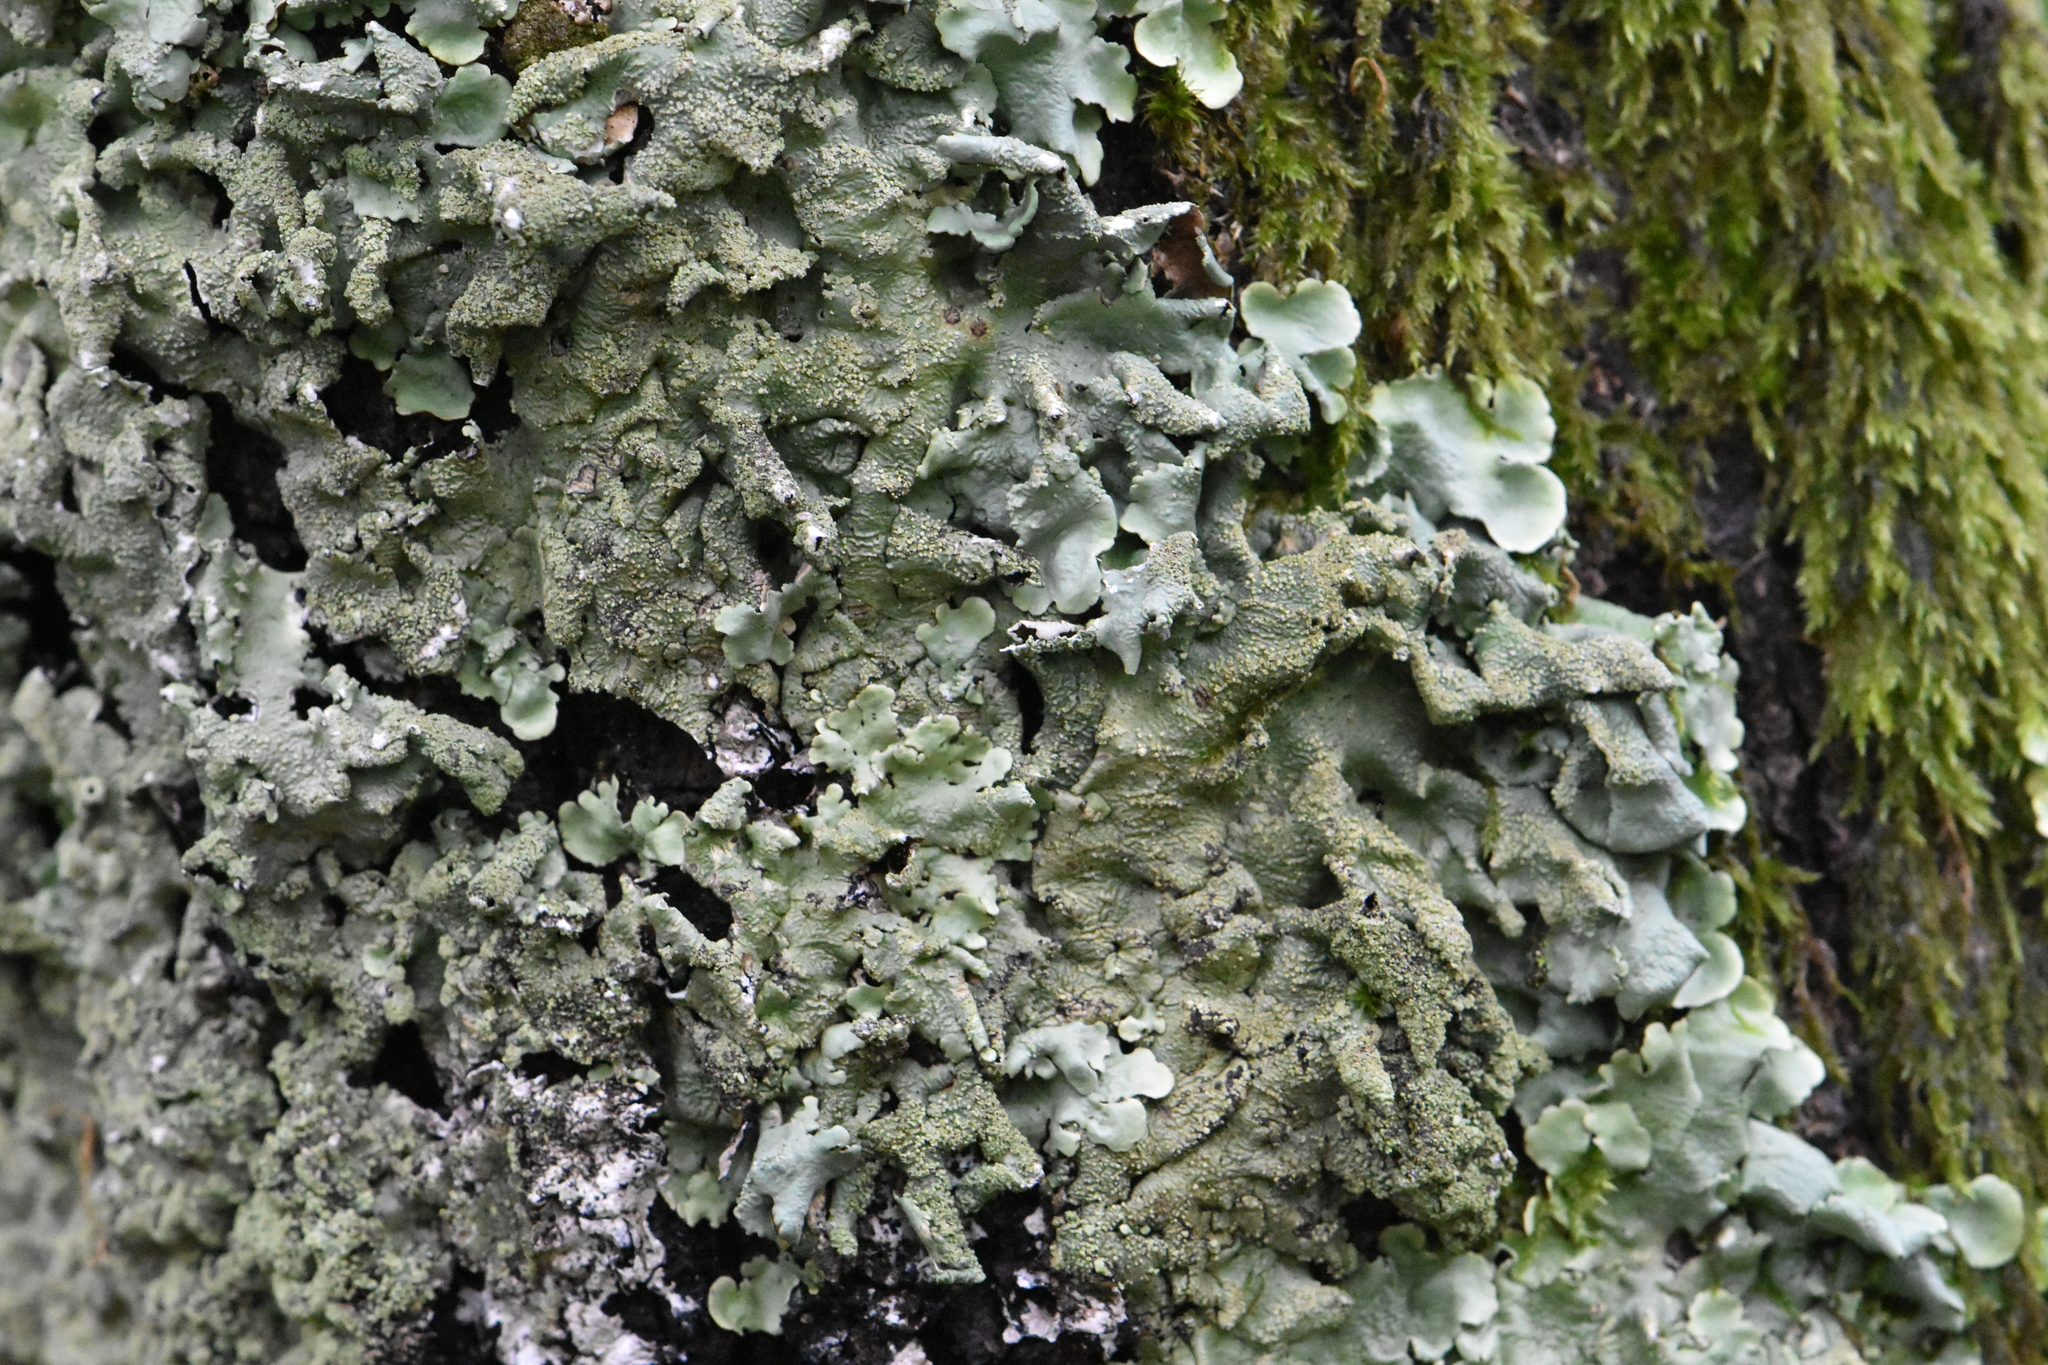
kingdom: Fungi
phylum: Ascomycota
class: Lecanoromycetes
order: Lecanorales
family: Parmeliaceae
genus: Flavoparmelia
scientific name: Flavoparmelia caperata
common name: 40-mile per hour lichen
